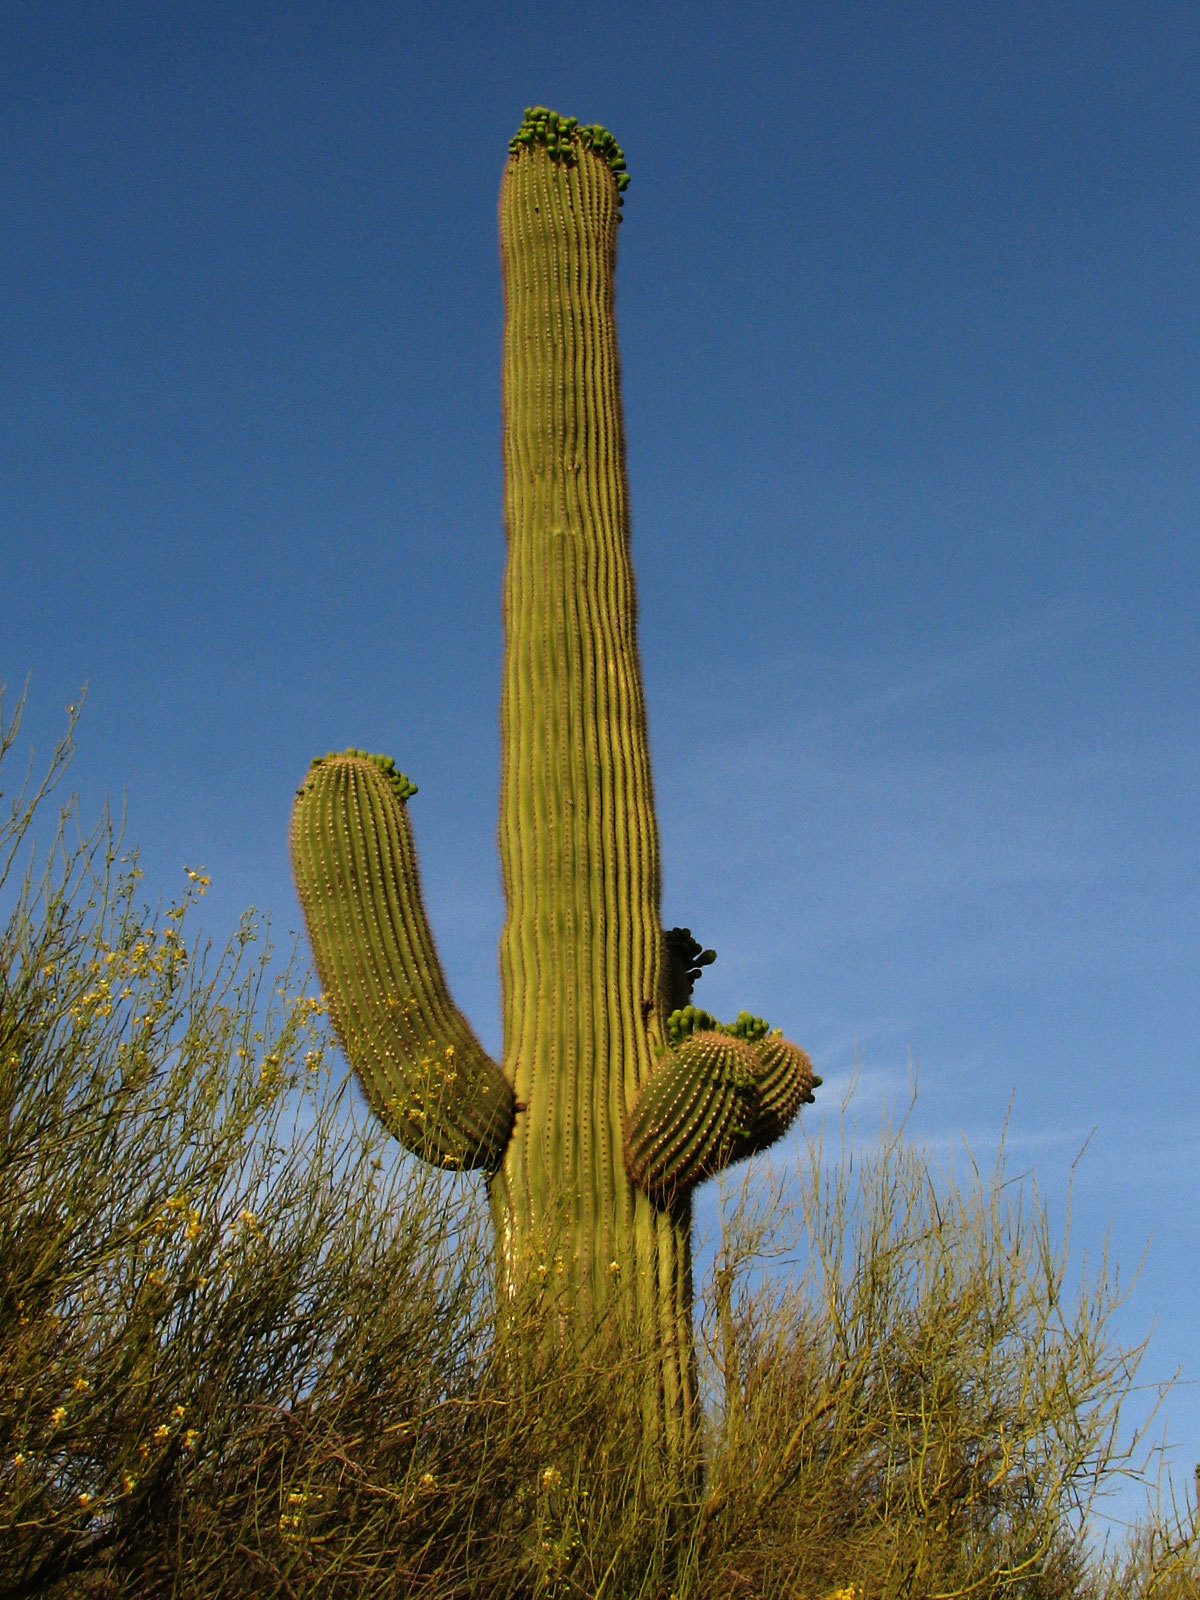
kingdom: Plantae
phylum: Tracheophyta
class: Magnoliopsida
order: Caryophyllales
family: Cactaceae
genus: Carnegiea
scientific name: Carnegiea gigantea
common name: Saguaro
